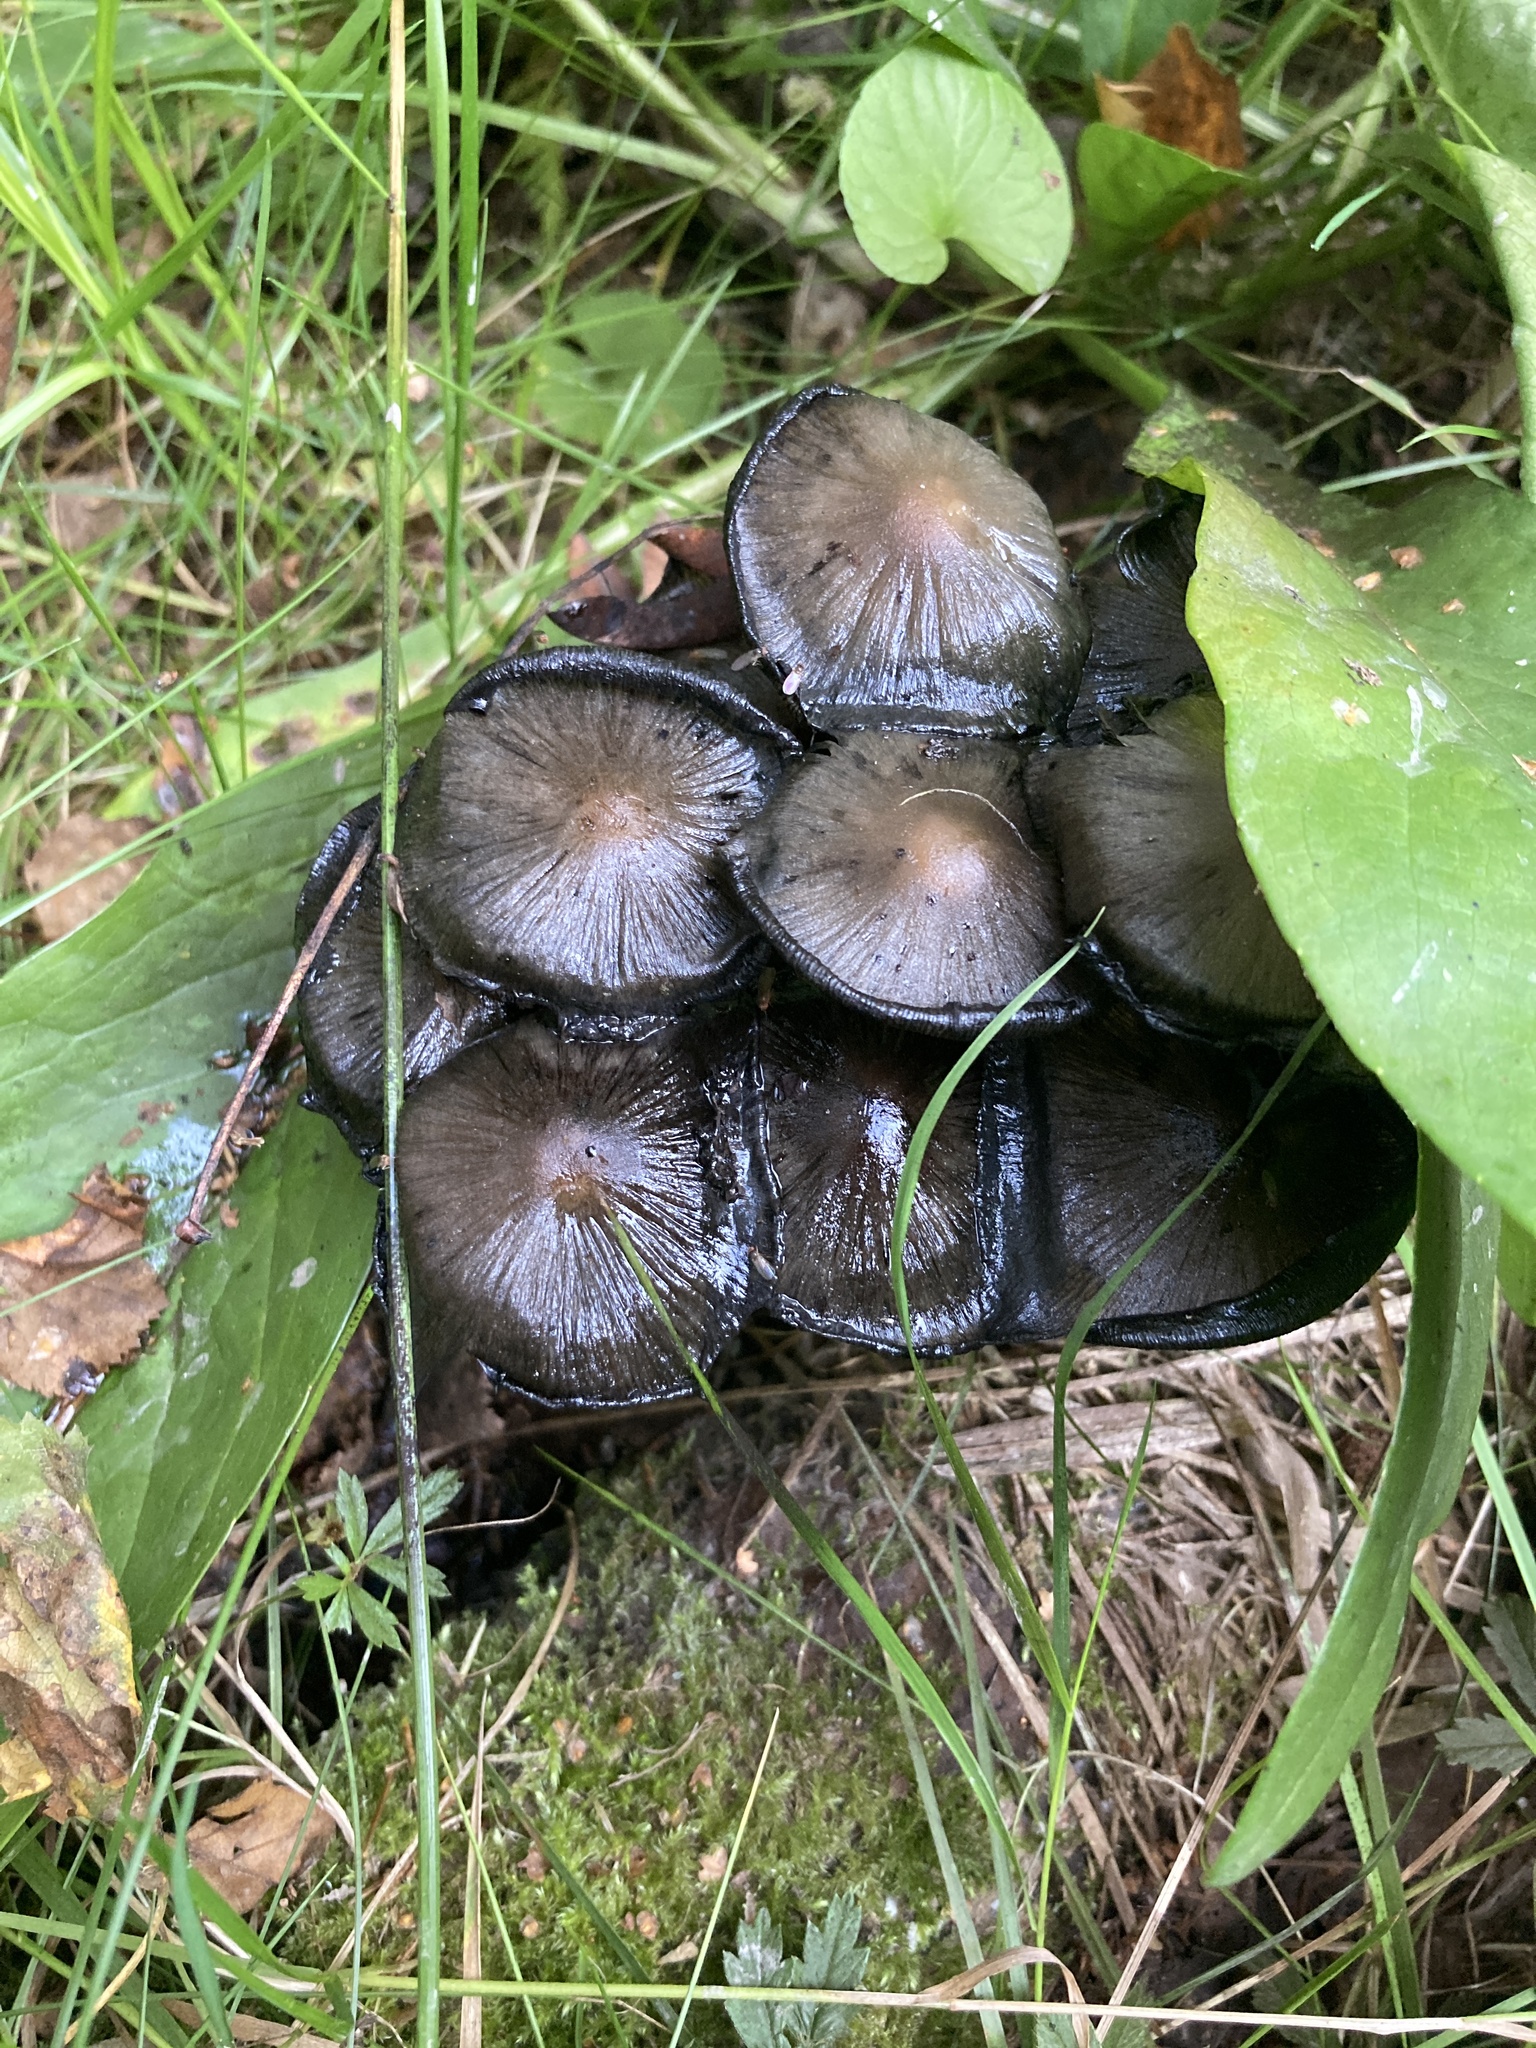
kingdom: Fungi
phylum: Basidiomycota
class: Agaricomycetes
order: Agaricales
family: Psathyrellaceae
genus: Coprinopsis
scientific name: Coprinopsis atramentaria
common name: Common ink-cap
